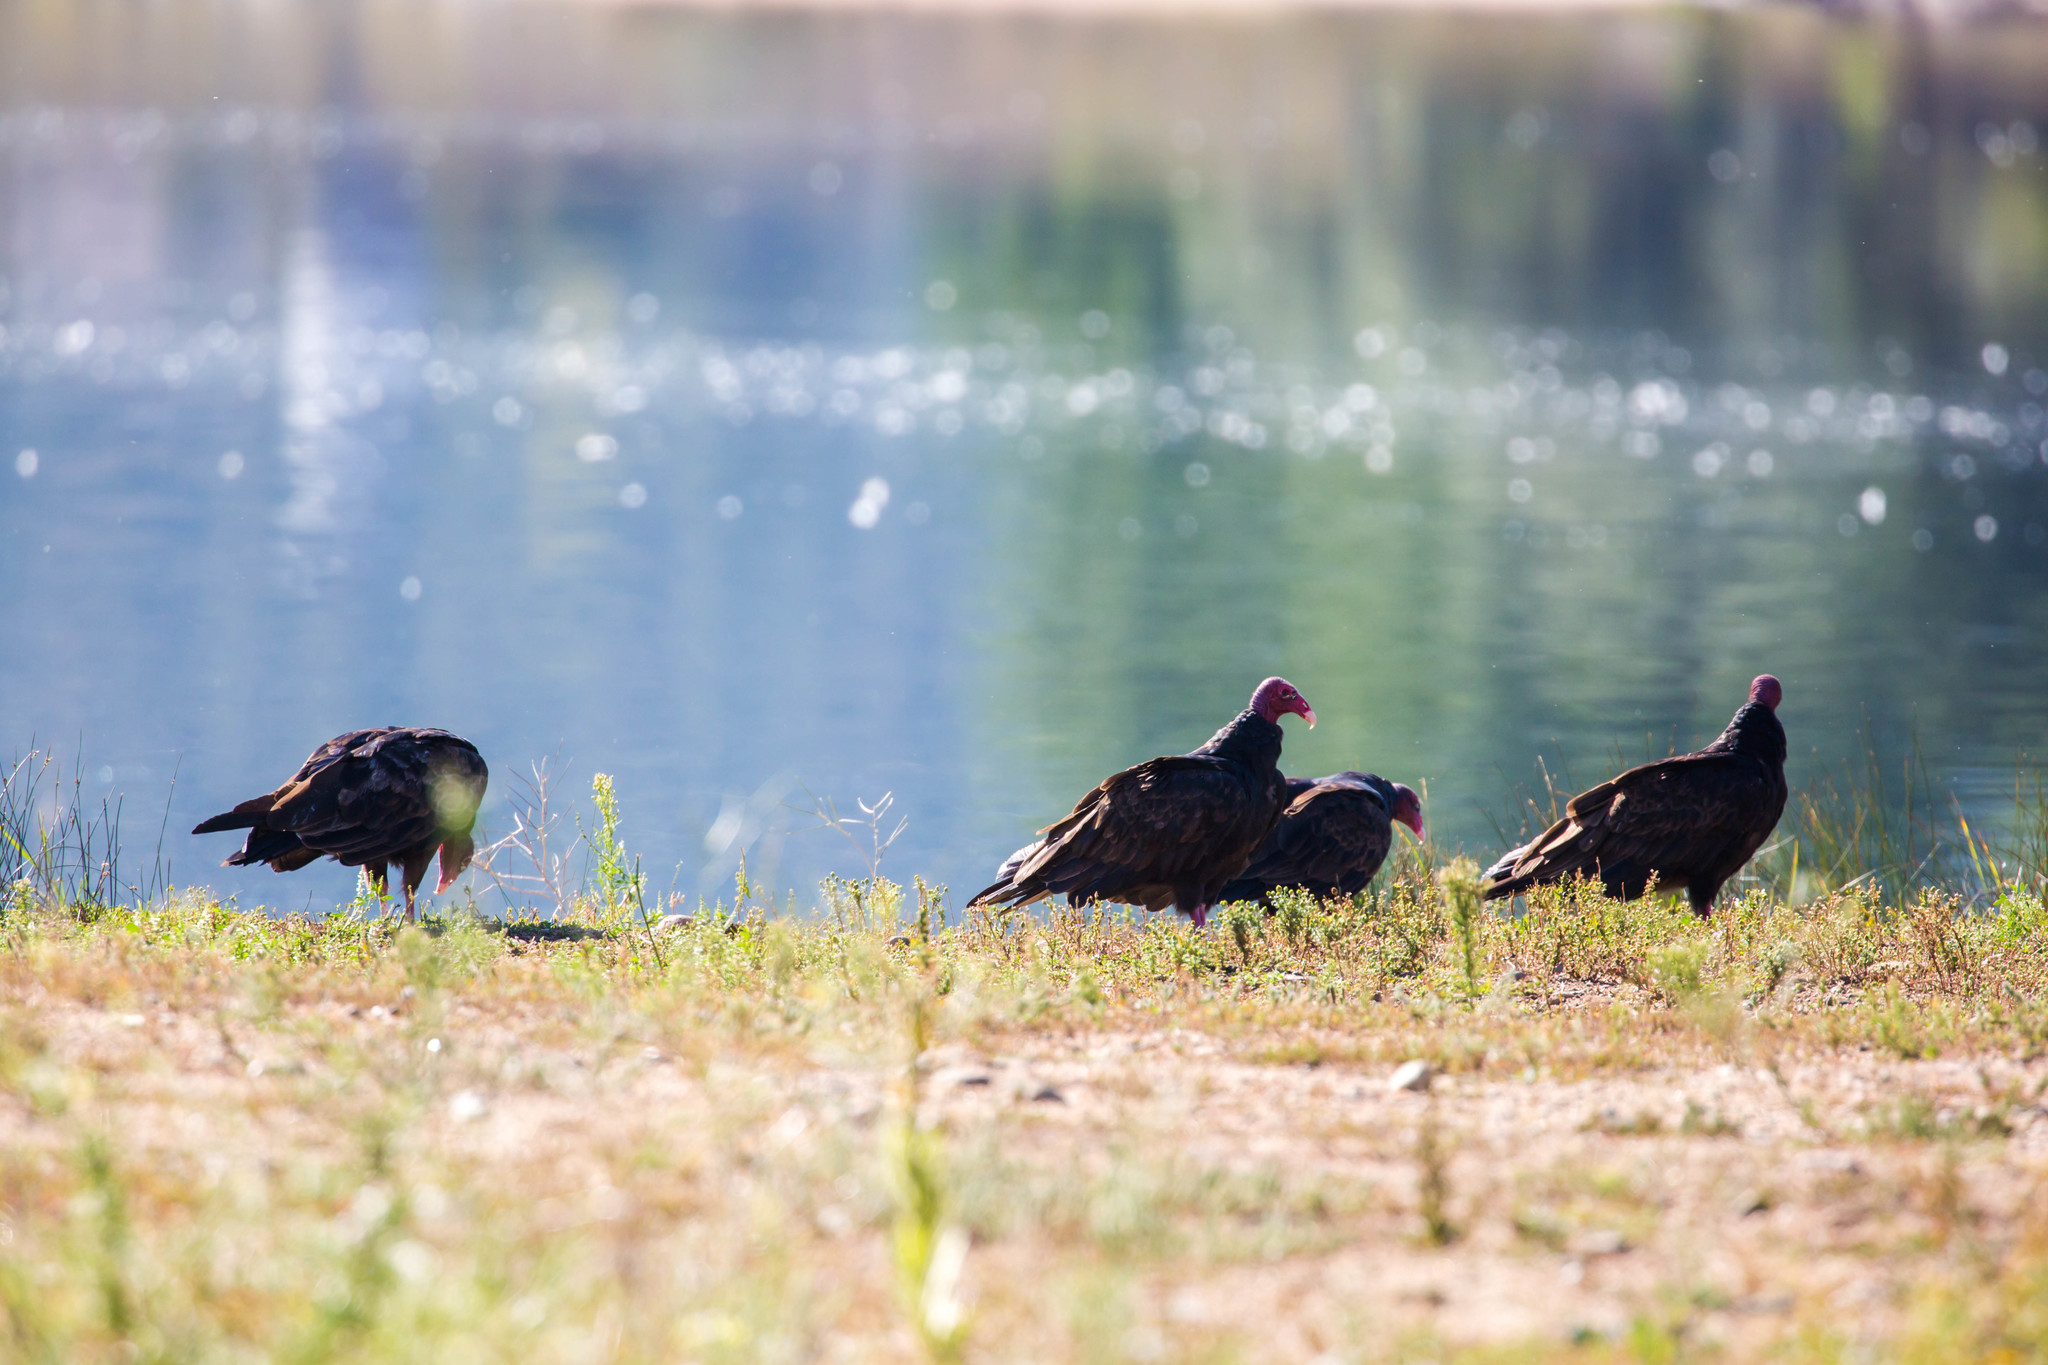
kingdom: Animalia
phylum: Chordata
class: Aves
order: Accipitriformes
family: Cathartidae
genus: Cathartes
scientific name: Cathartes aura
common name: Turkey vulture
